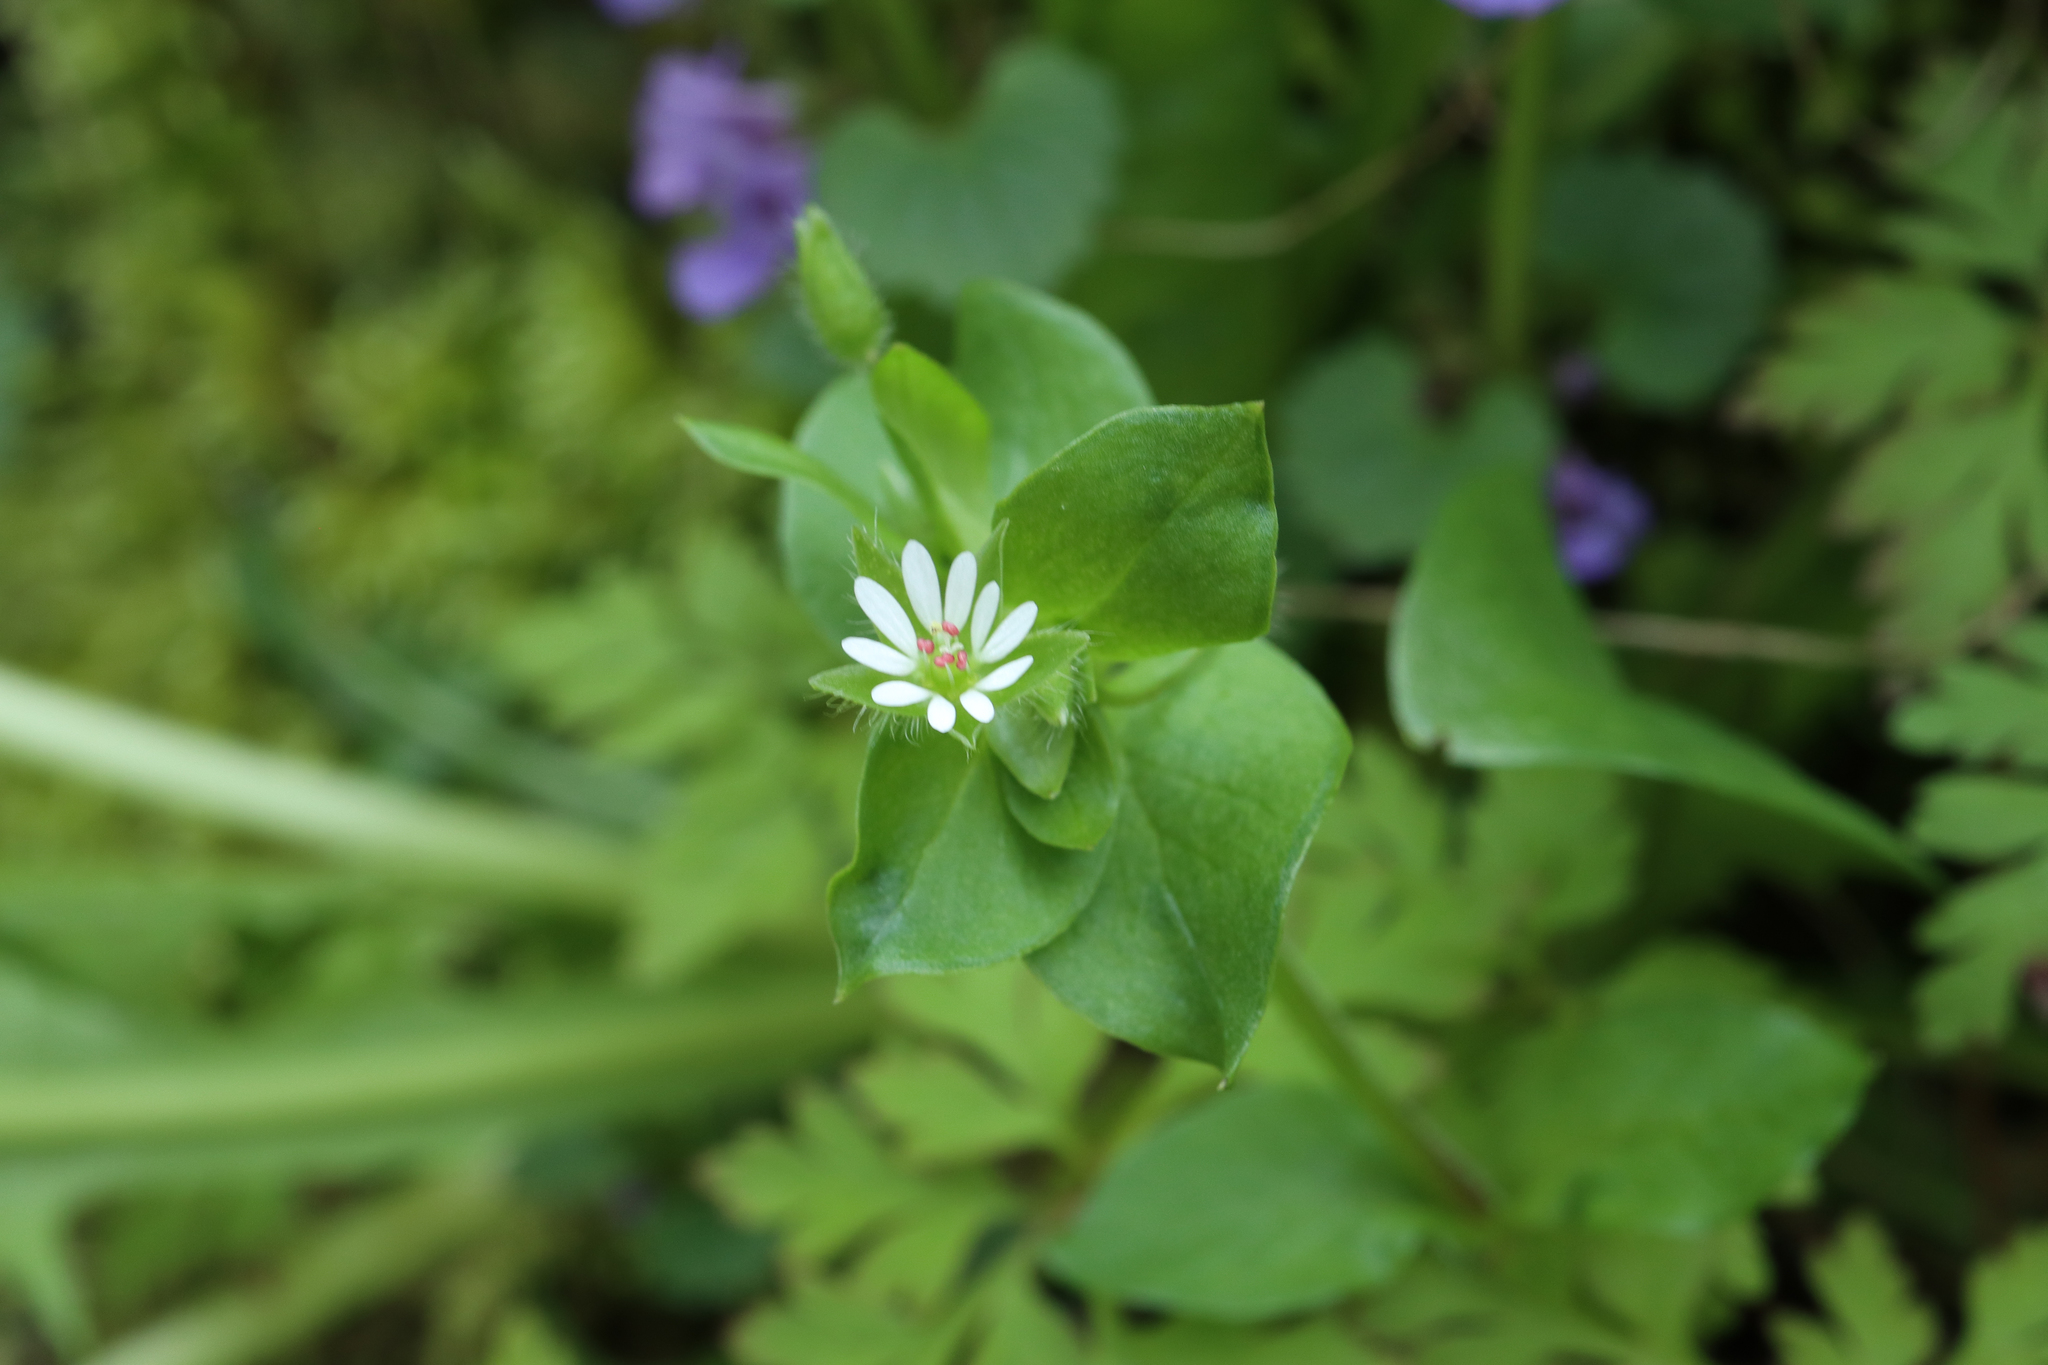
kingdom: Plantae
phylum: Tracheophyta
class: Magnoliopsida
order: Caryophyllales
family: Caryophyllaceae
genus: Stellaria
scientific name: Stellaria media
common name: Common chickweed
